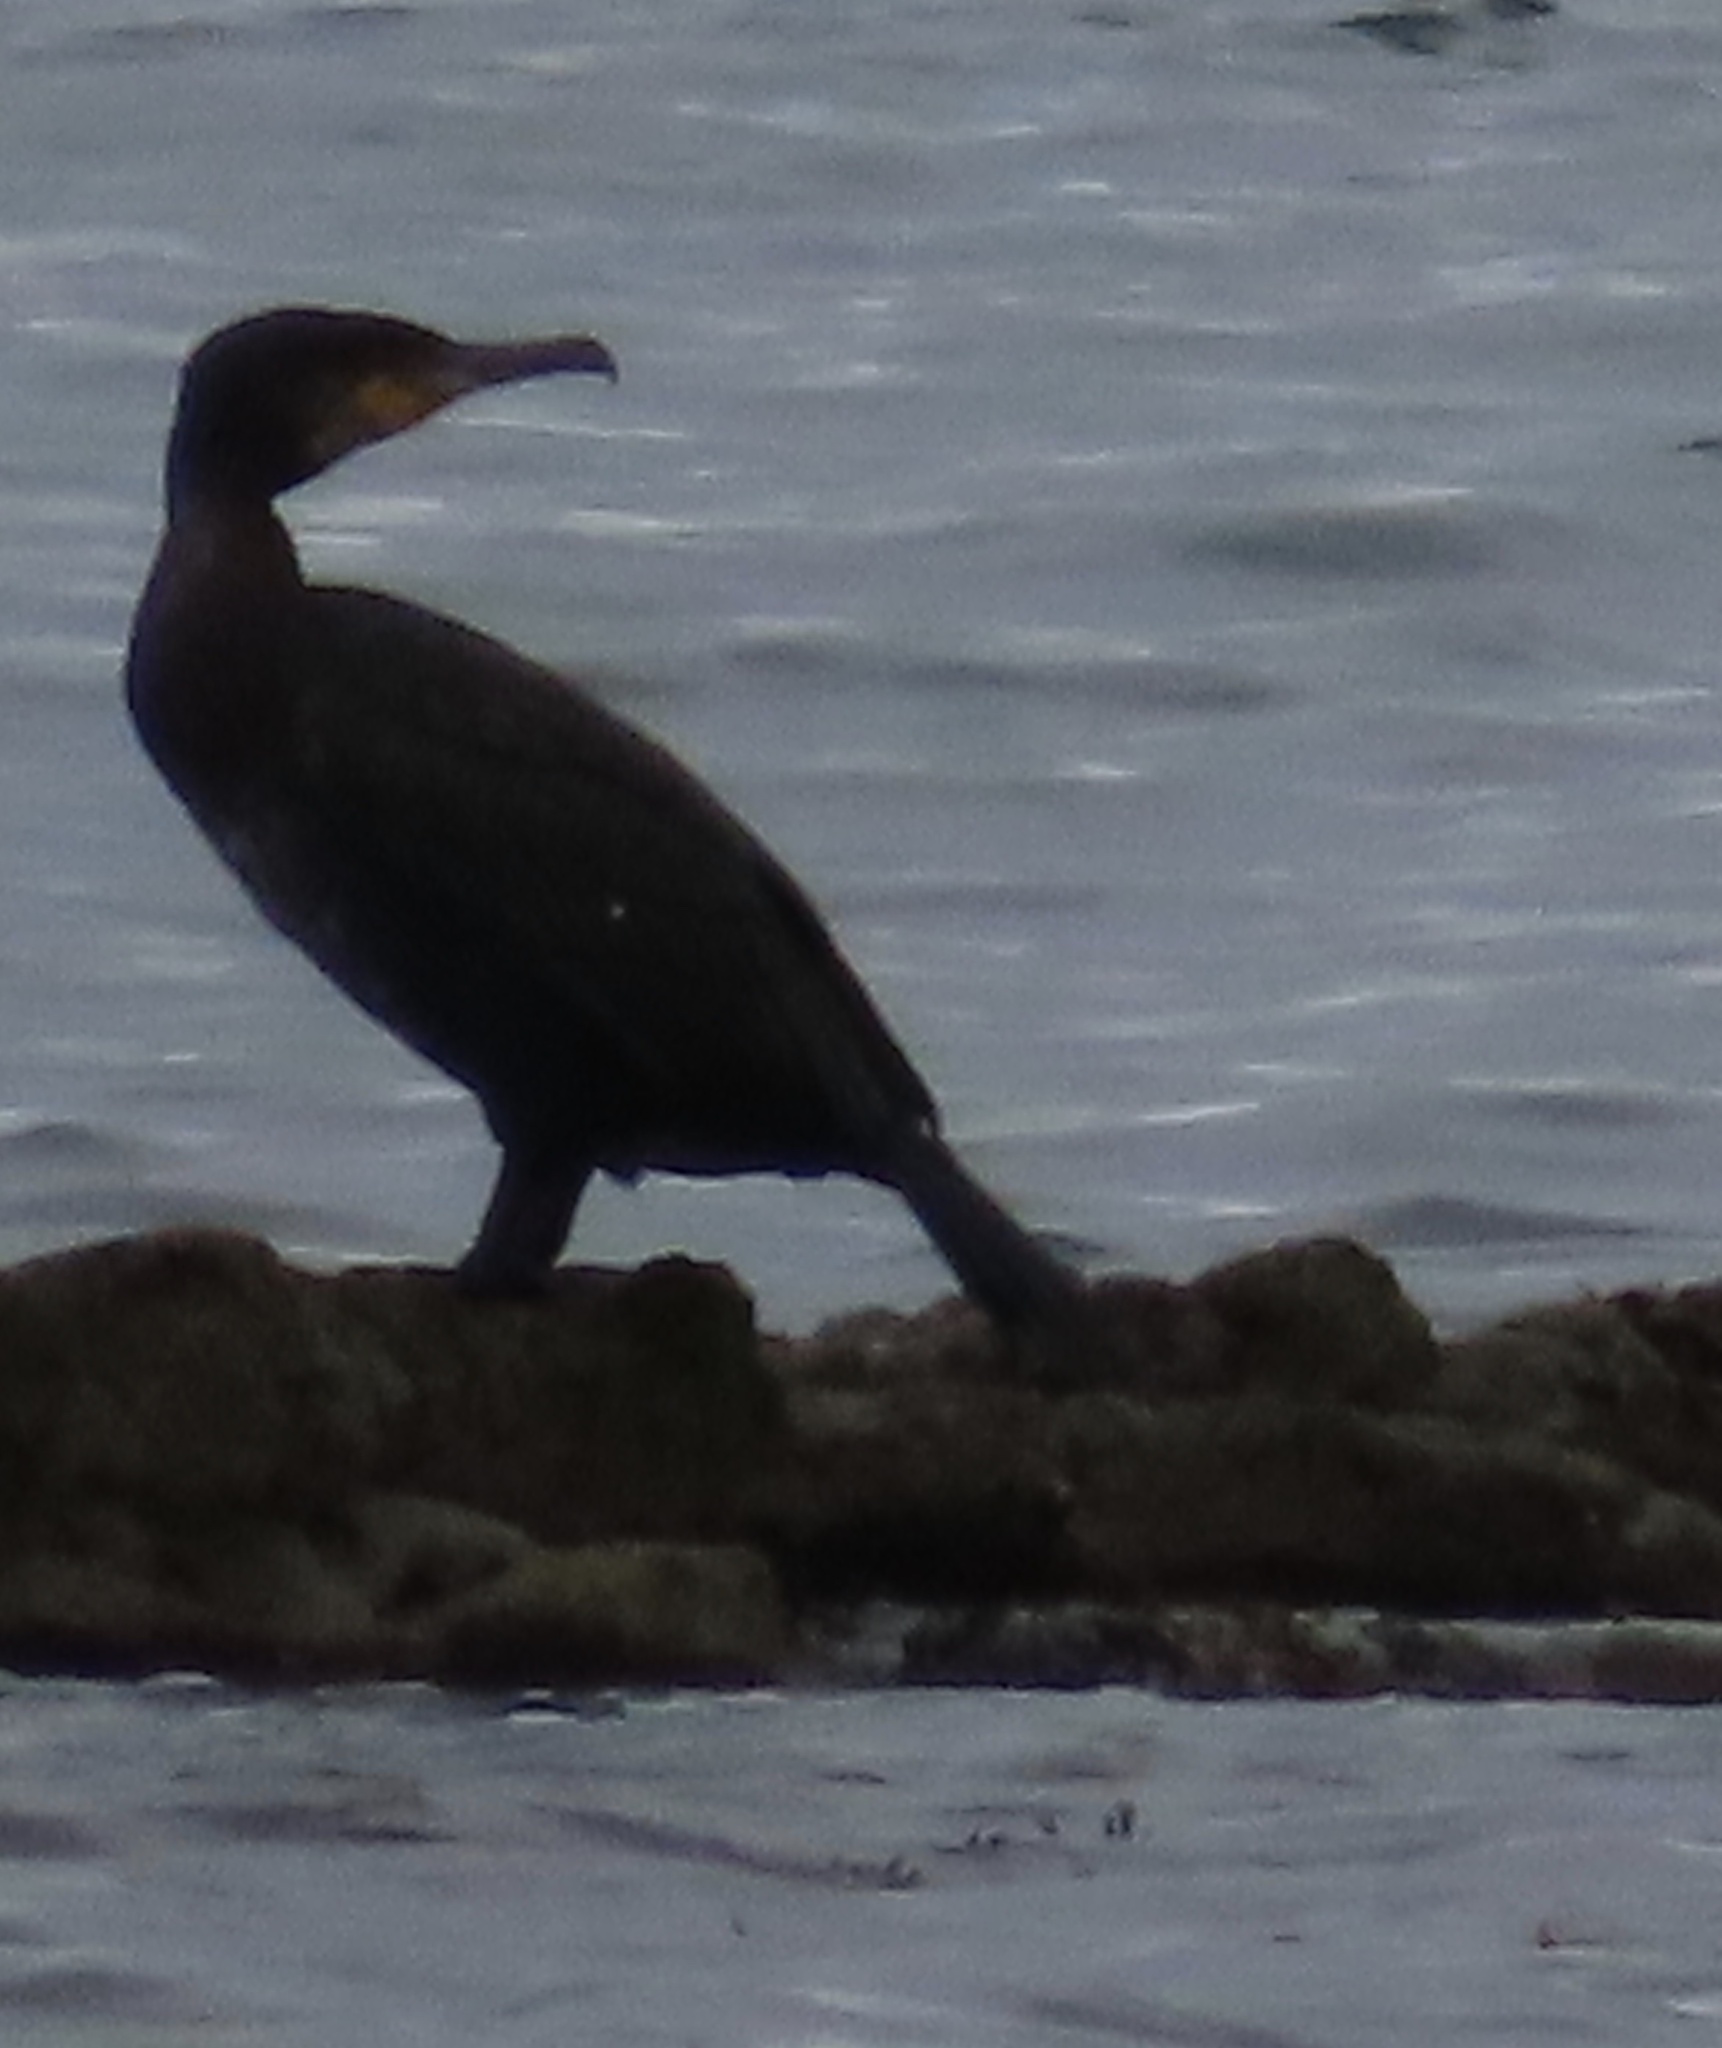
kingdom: Animalia
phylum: Chordata
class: Aves
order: Suliformes
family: Phalacrocoracidae
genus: Phalacrocorax
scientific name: Phalacrocorax carbo
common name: Great cormorant
